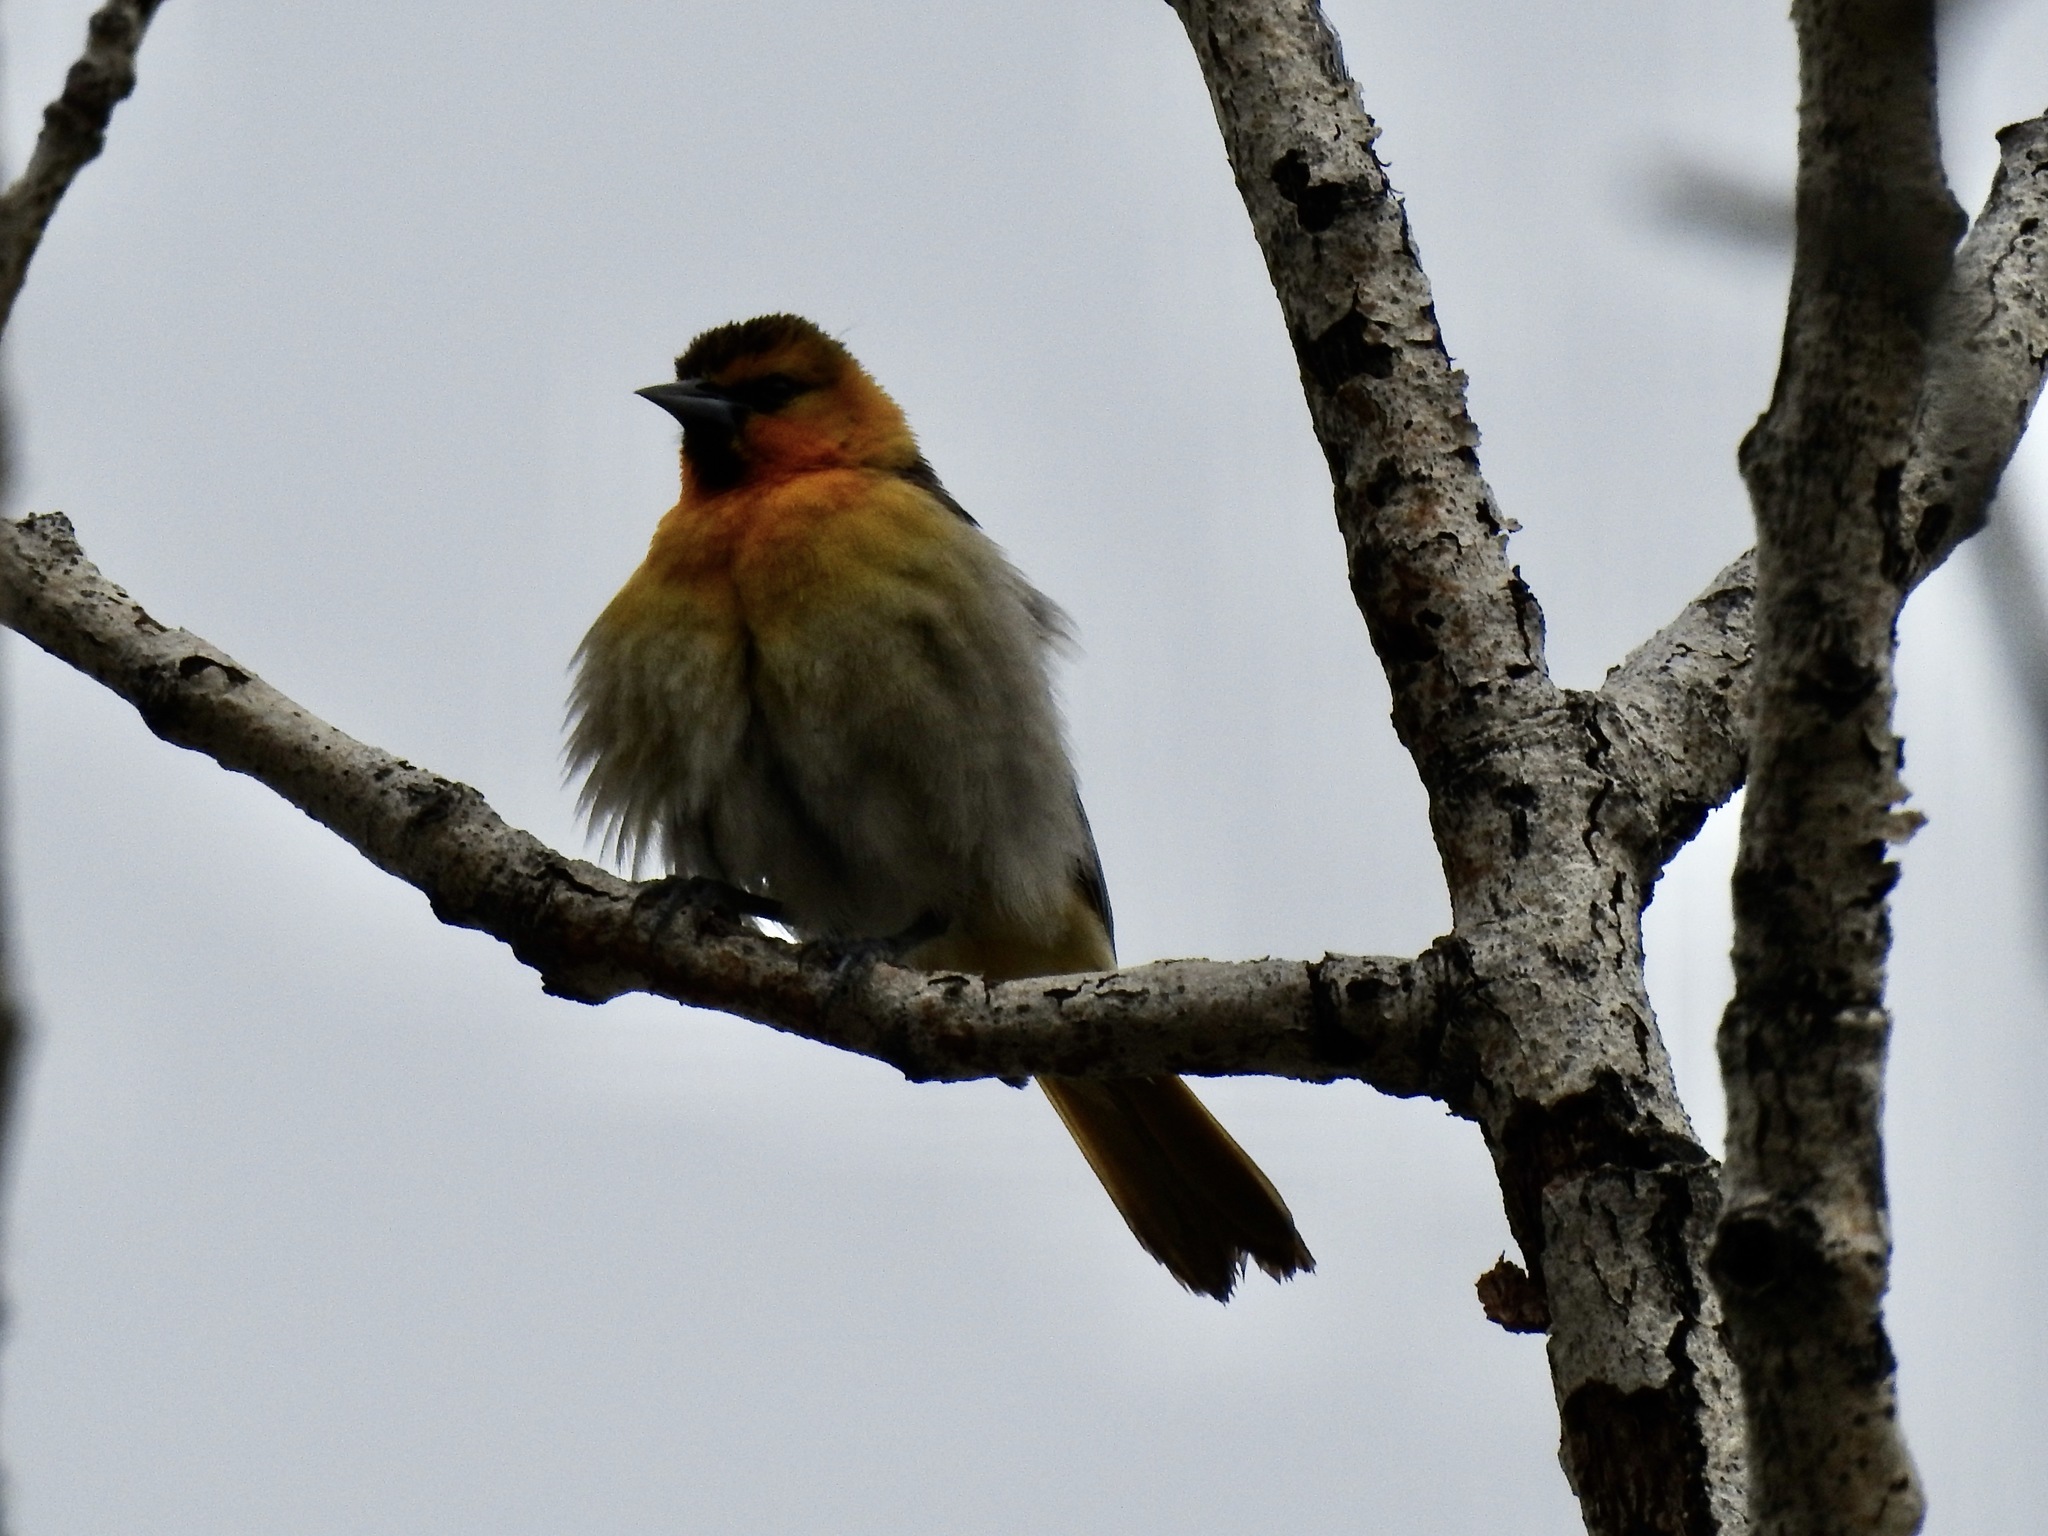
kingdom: Animalia
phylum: Chordata
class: Aves
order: Passeriformes
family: Icteridae
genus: Icterus
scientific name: Icterus bullockii
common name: Bullock's oriole
